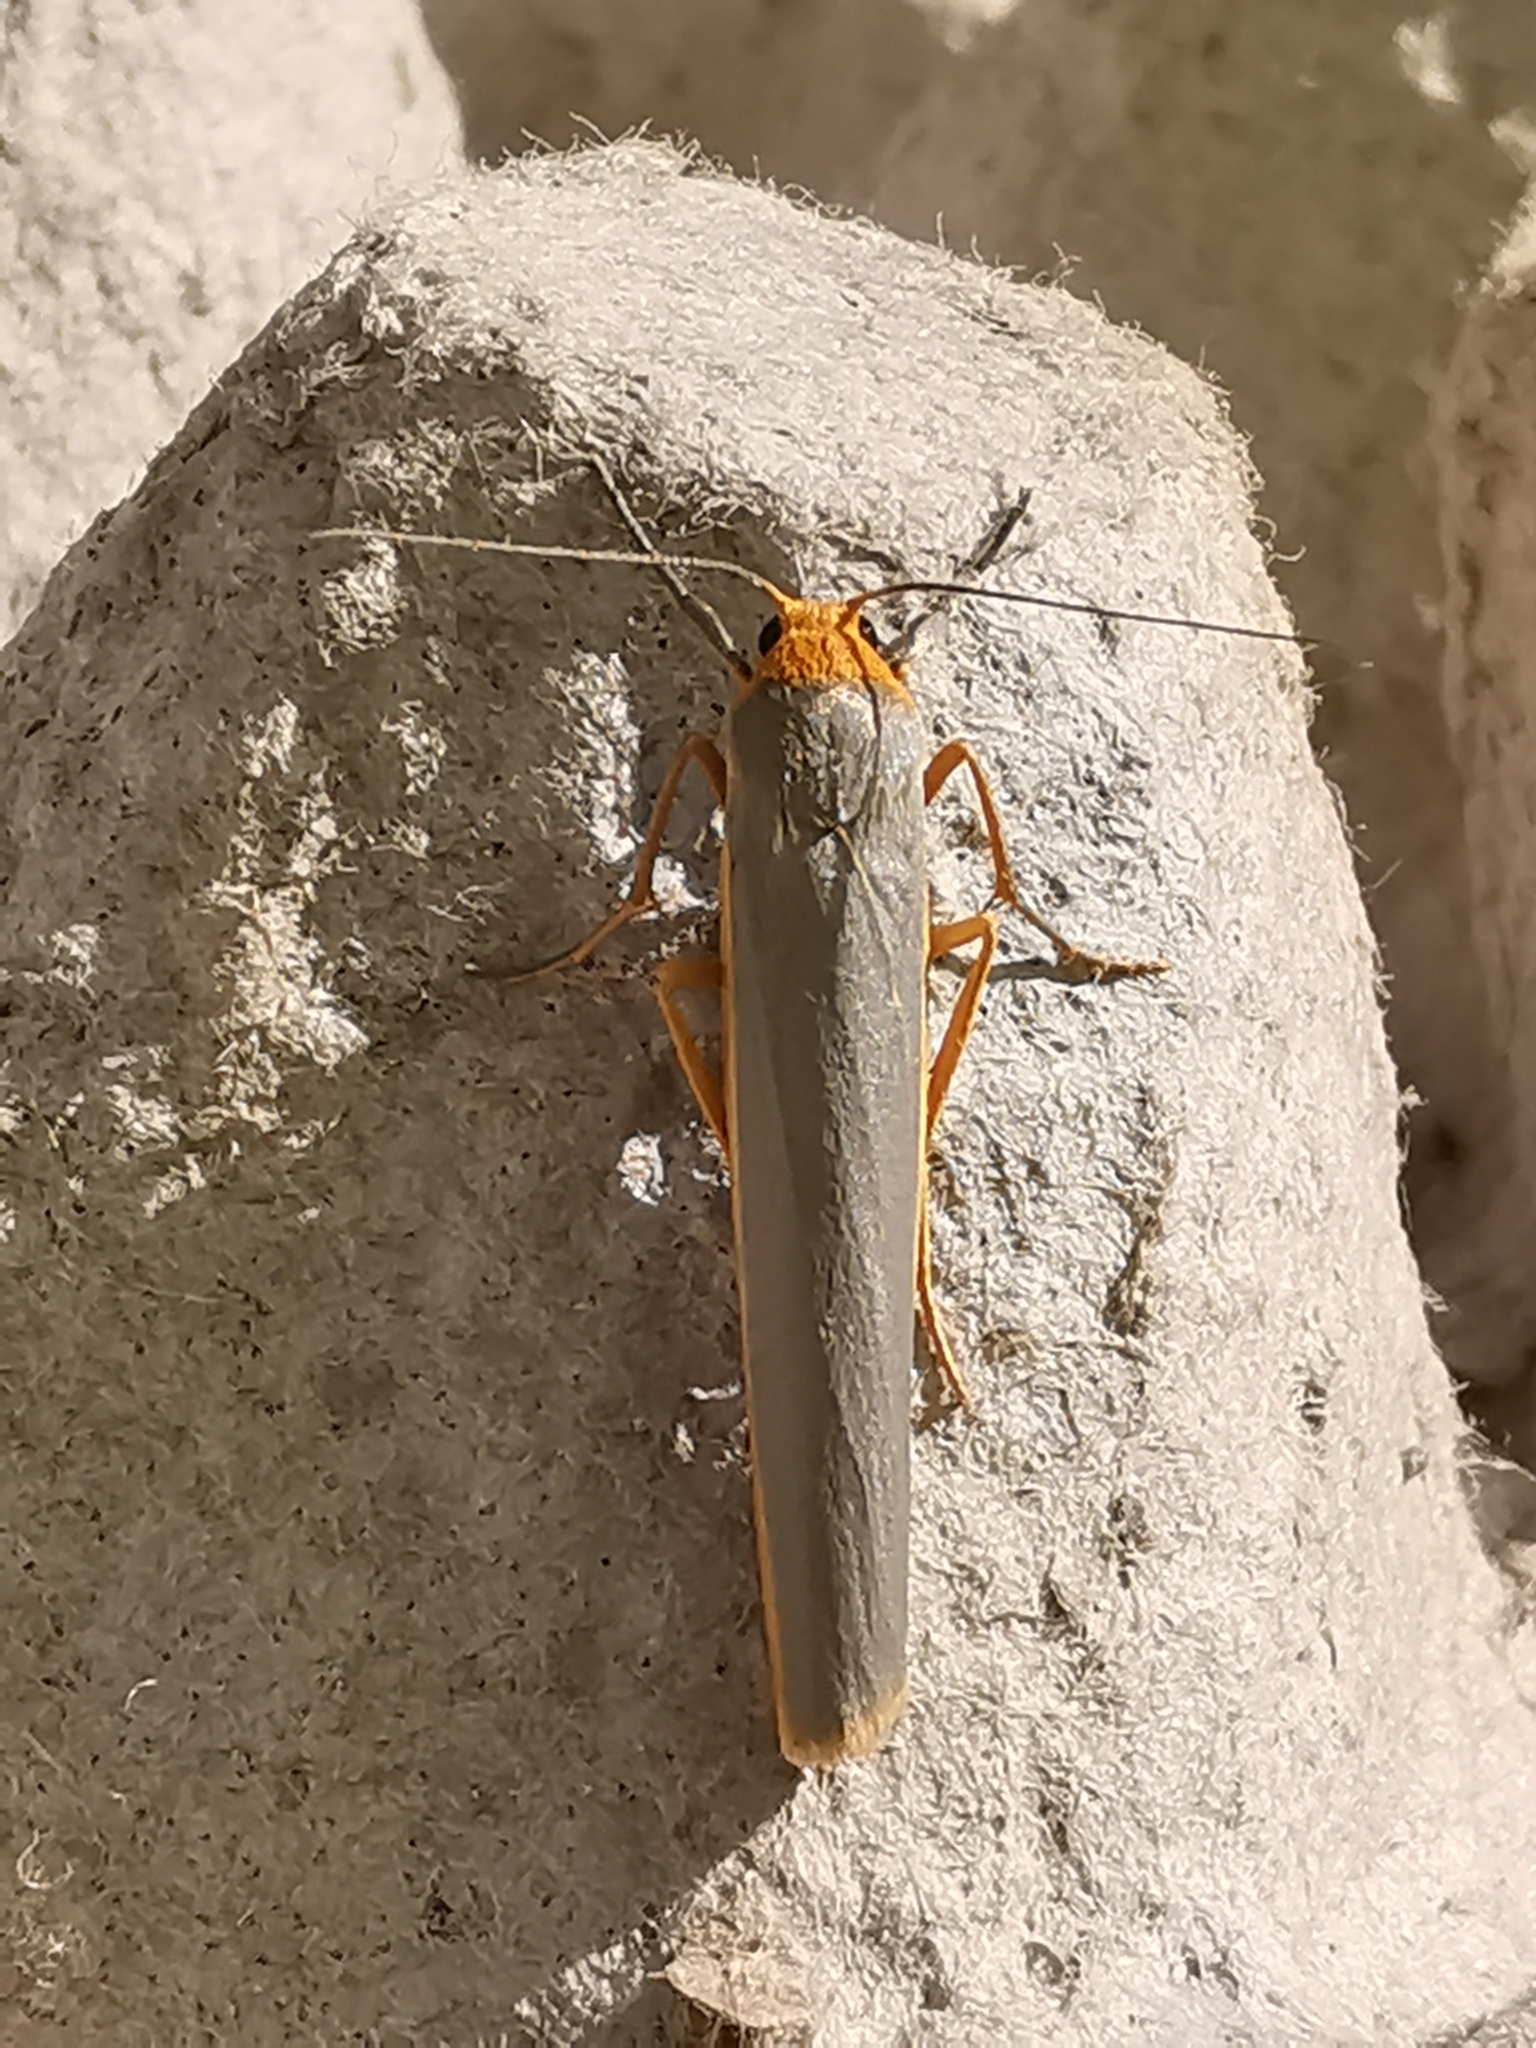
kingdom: Animalia
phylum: Arthropoda
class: Insecta
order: Lepidoptera
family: Erebidae
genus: Manulea
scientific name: Manulea complana
